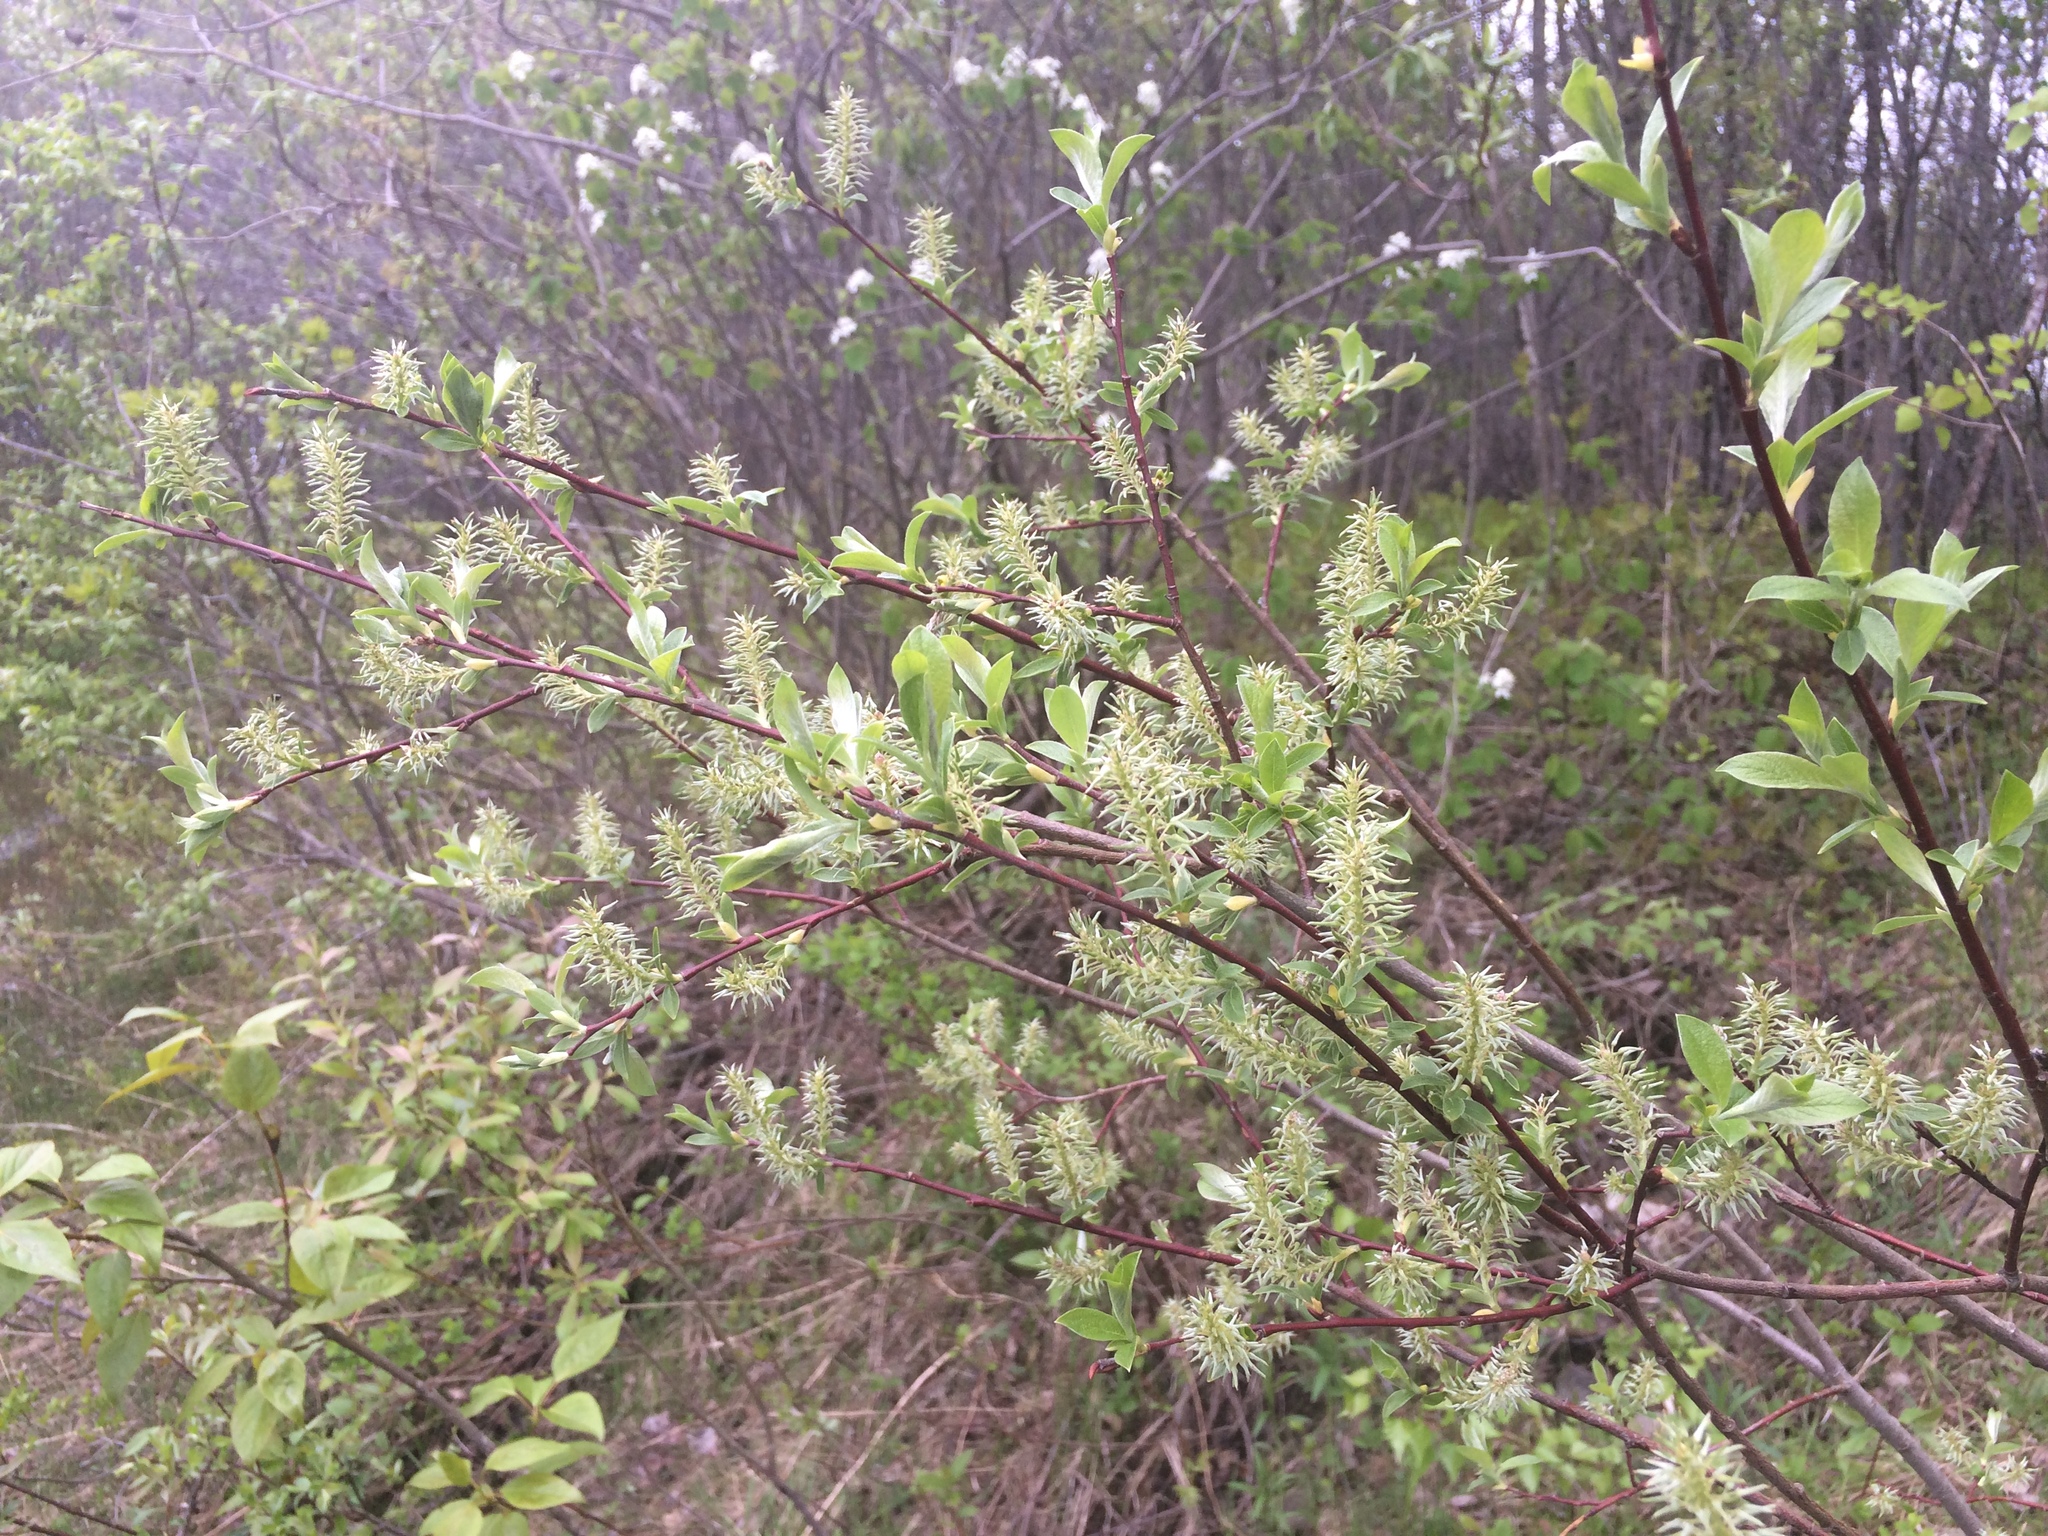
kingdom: Plantae
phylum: Tracheophyta
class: Magnoliopsida
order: Malpighiales
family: Salicaceae
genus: Salix
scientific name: Salix bebbiana
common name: Bebb's willow
